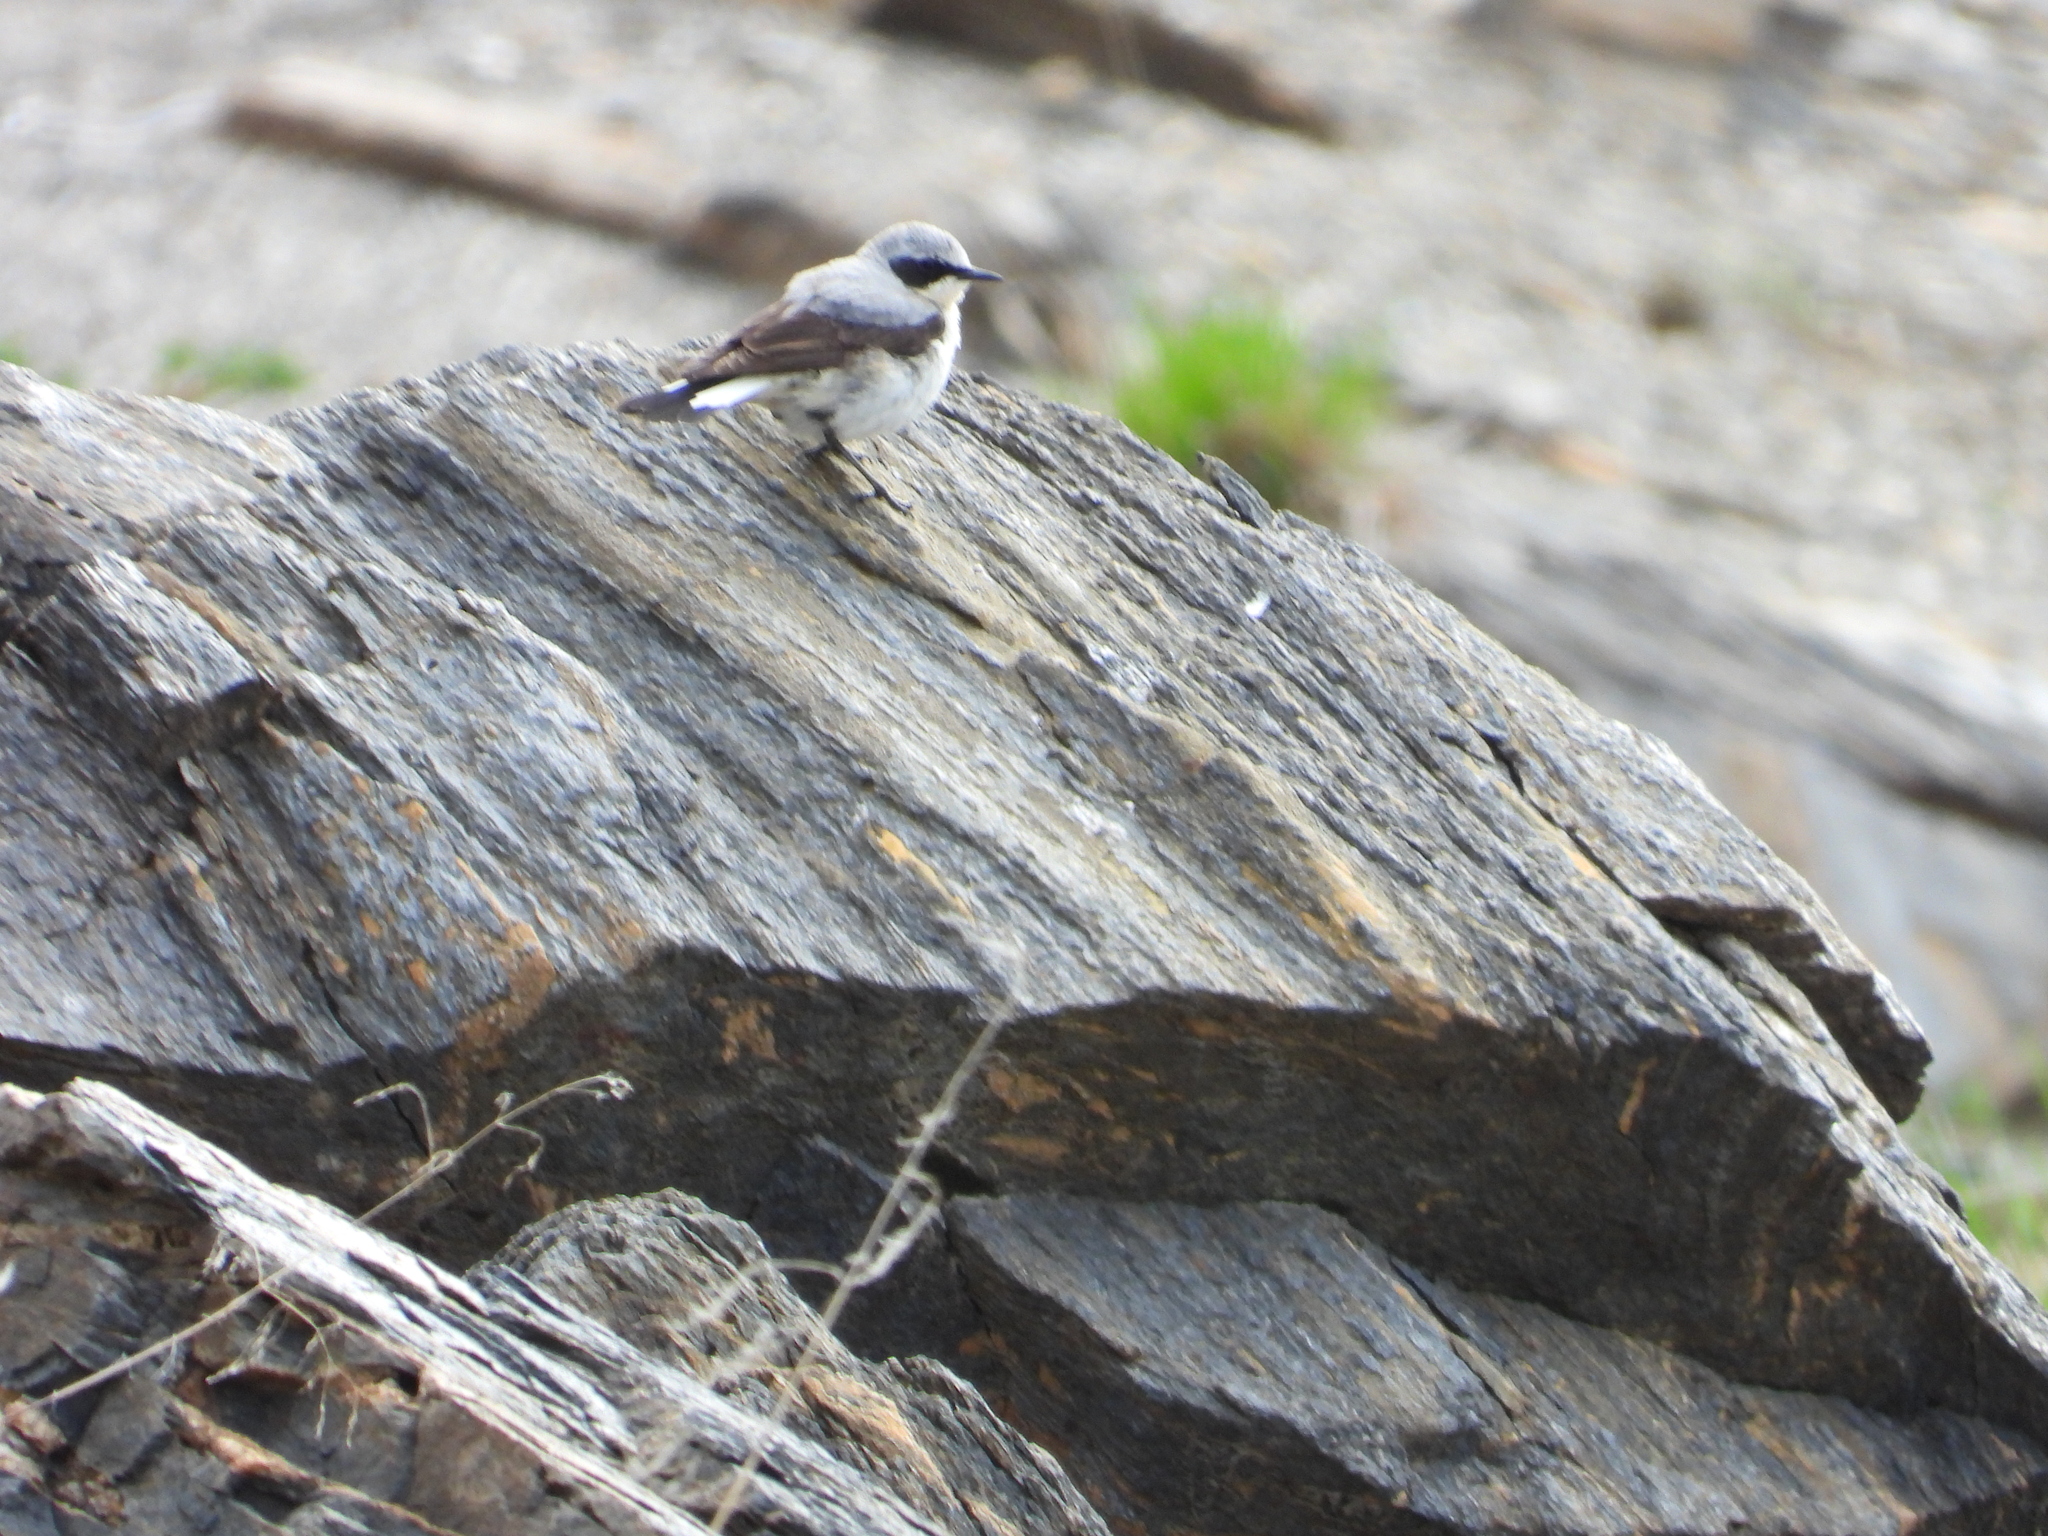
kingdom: Animalia
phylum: Chordata
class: Aves
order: Passeriformes
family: Muscicapidae
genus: Oenanthe
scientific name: Oenanthe oenanthe
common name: Northern wheatear
